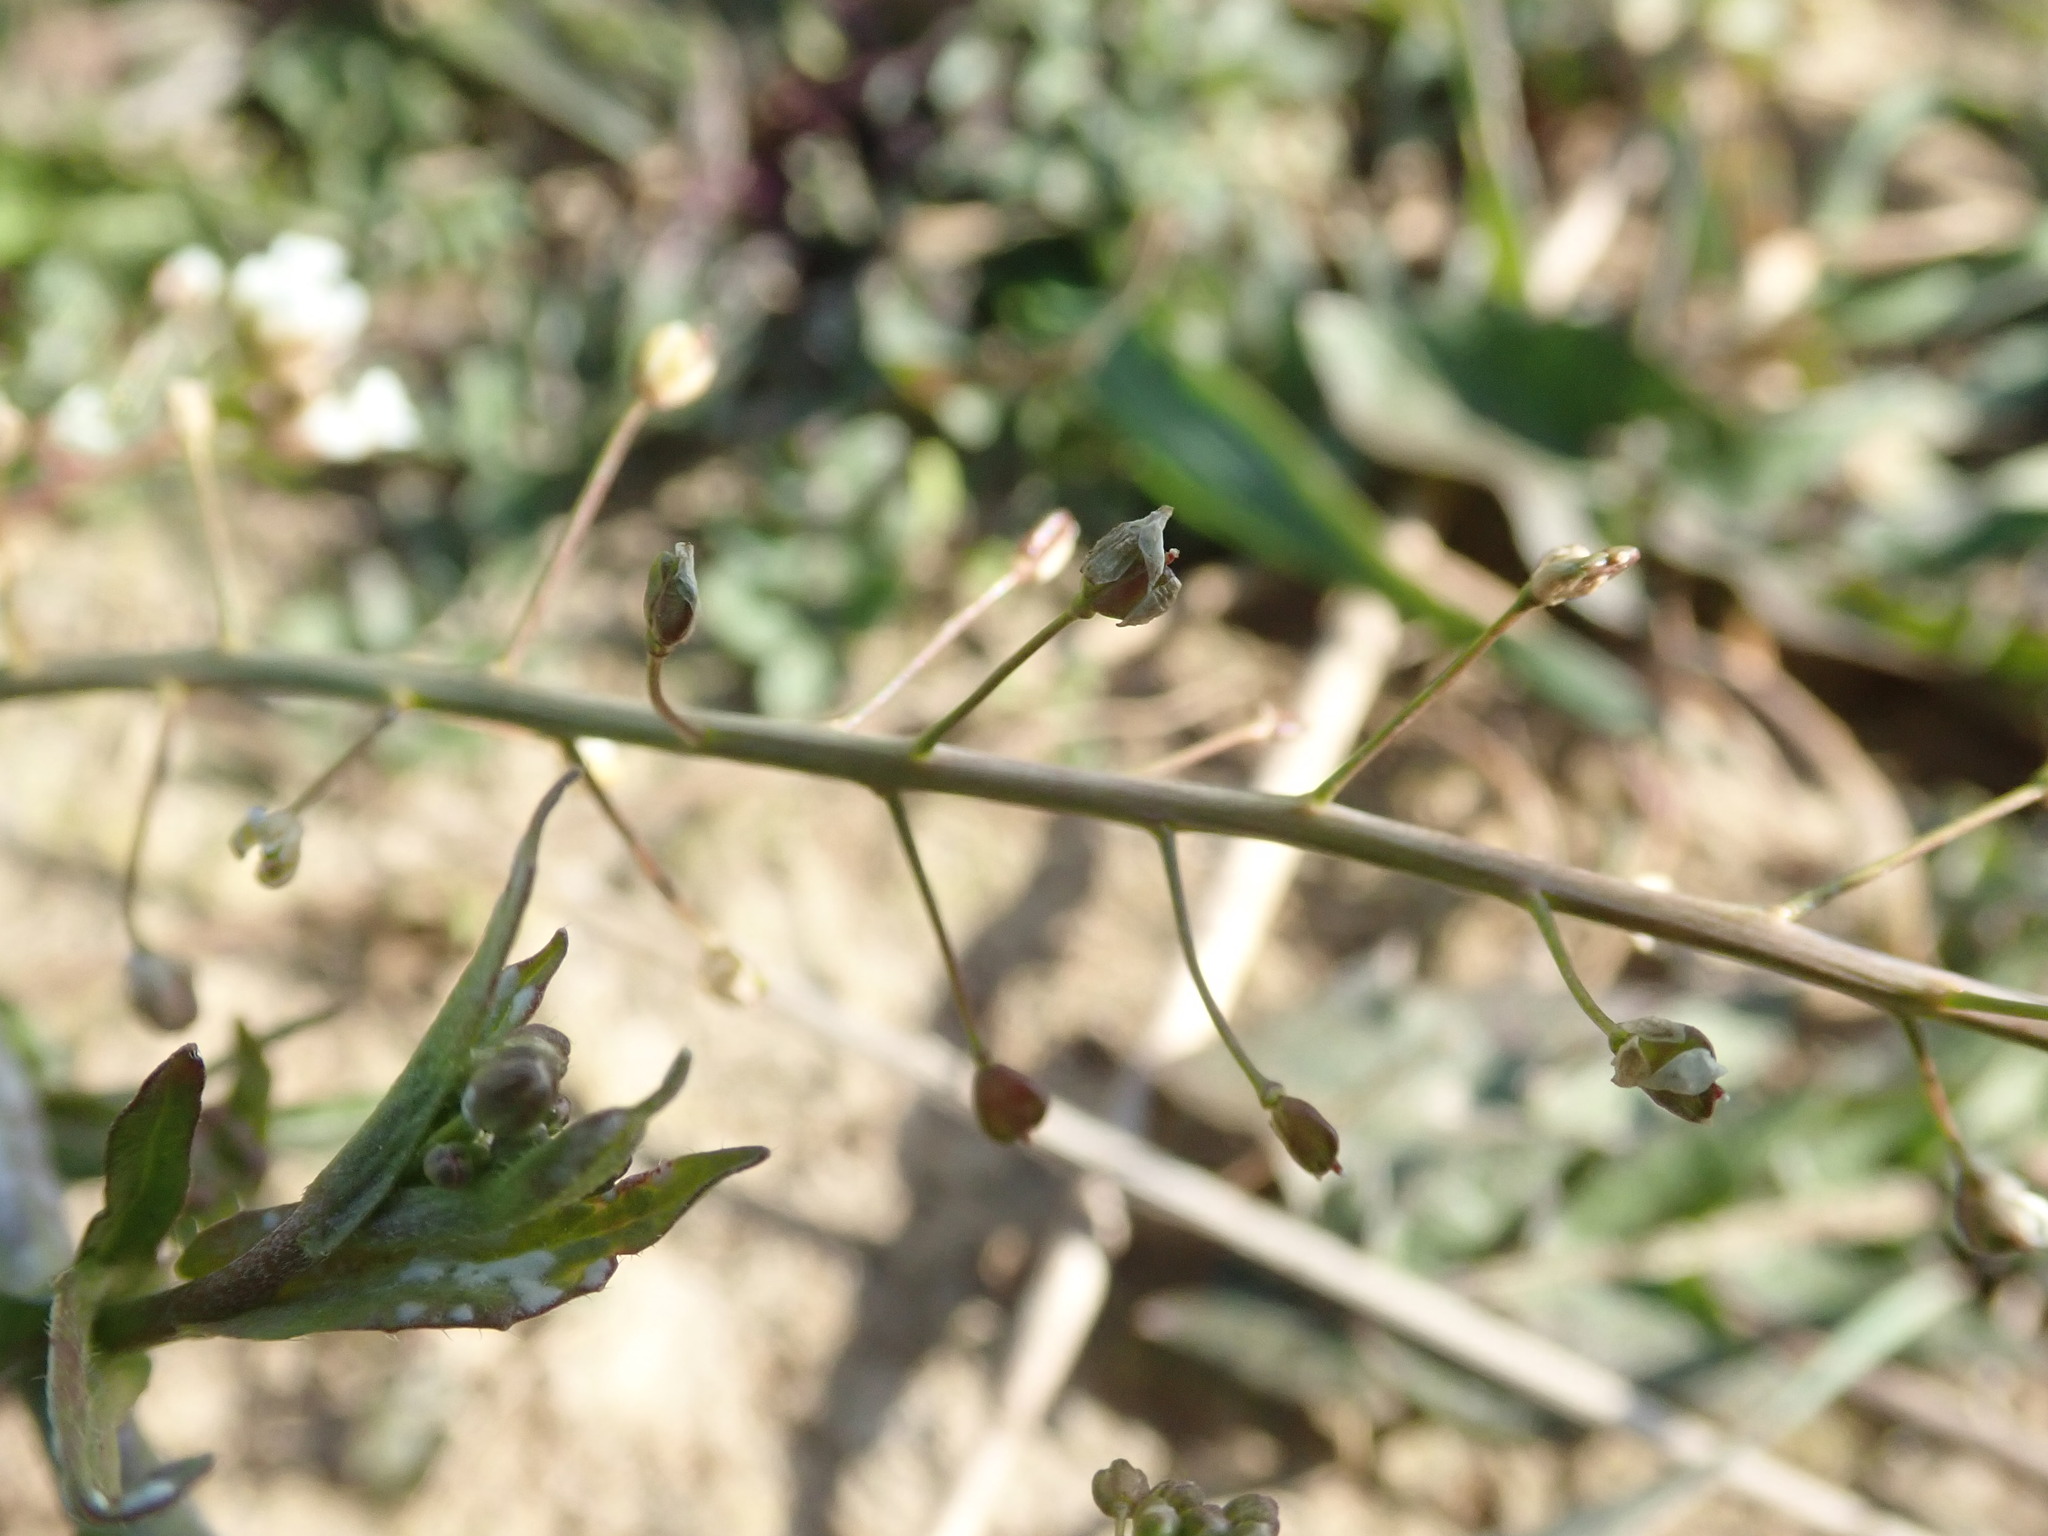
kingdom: Plantae
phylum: Tracheophyta
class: Magnoliopsida
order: Brassicales
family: Brassicaceae
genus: Capsella
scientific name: Capsella bursa-pastoris
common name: Shepherd's purse
